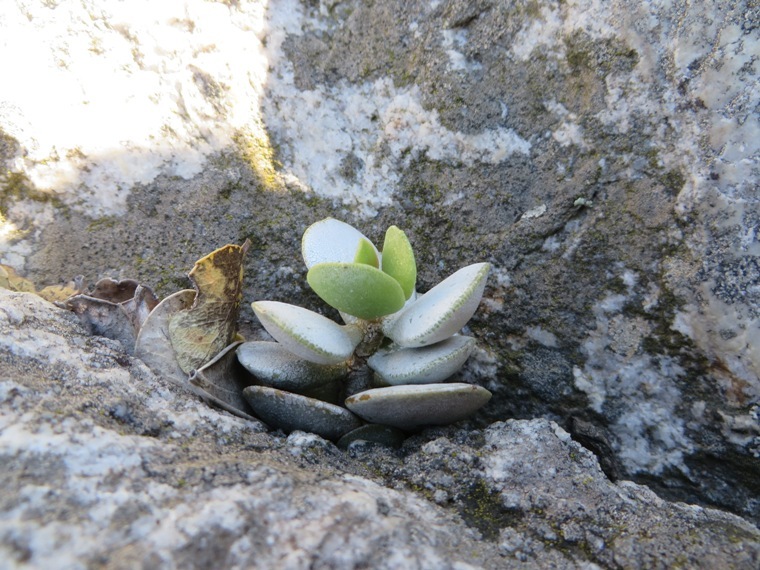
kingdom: Plantae
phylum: Tracheophyta
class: Magnoliopsida
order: Saxifragales
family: Crassulaceae
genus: Adromischus
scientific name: Adromischus hemisphaericus
